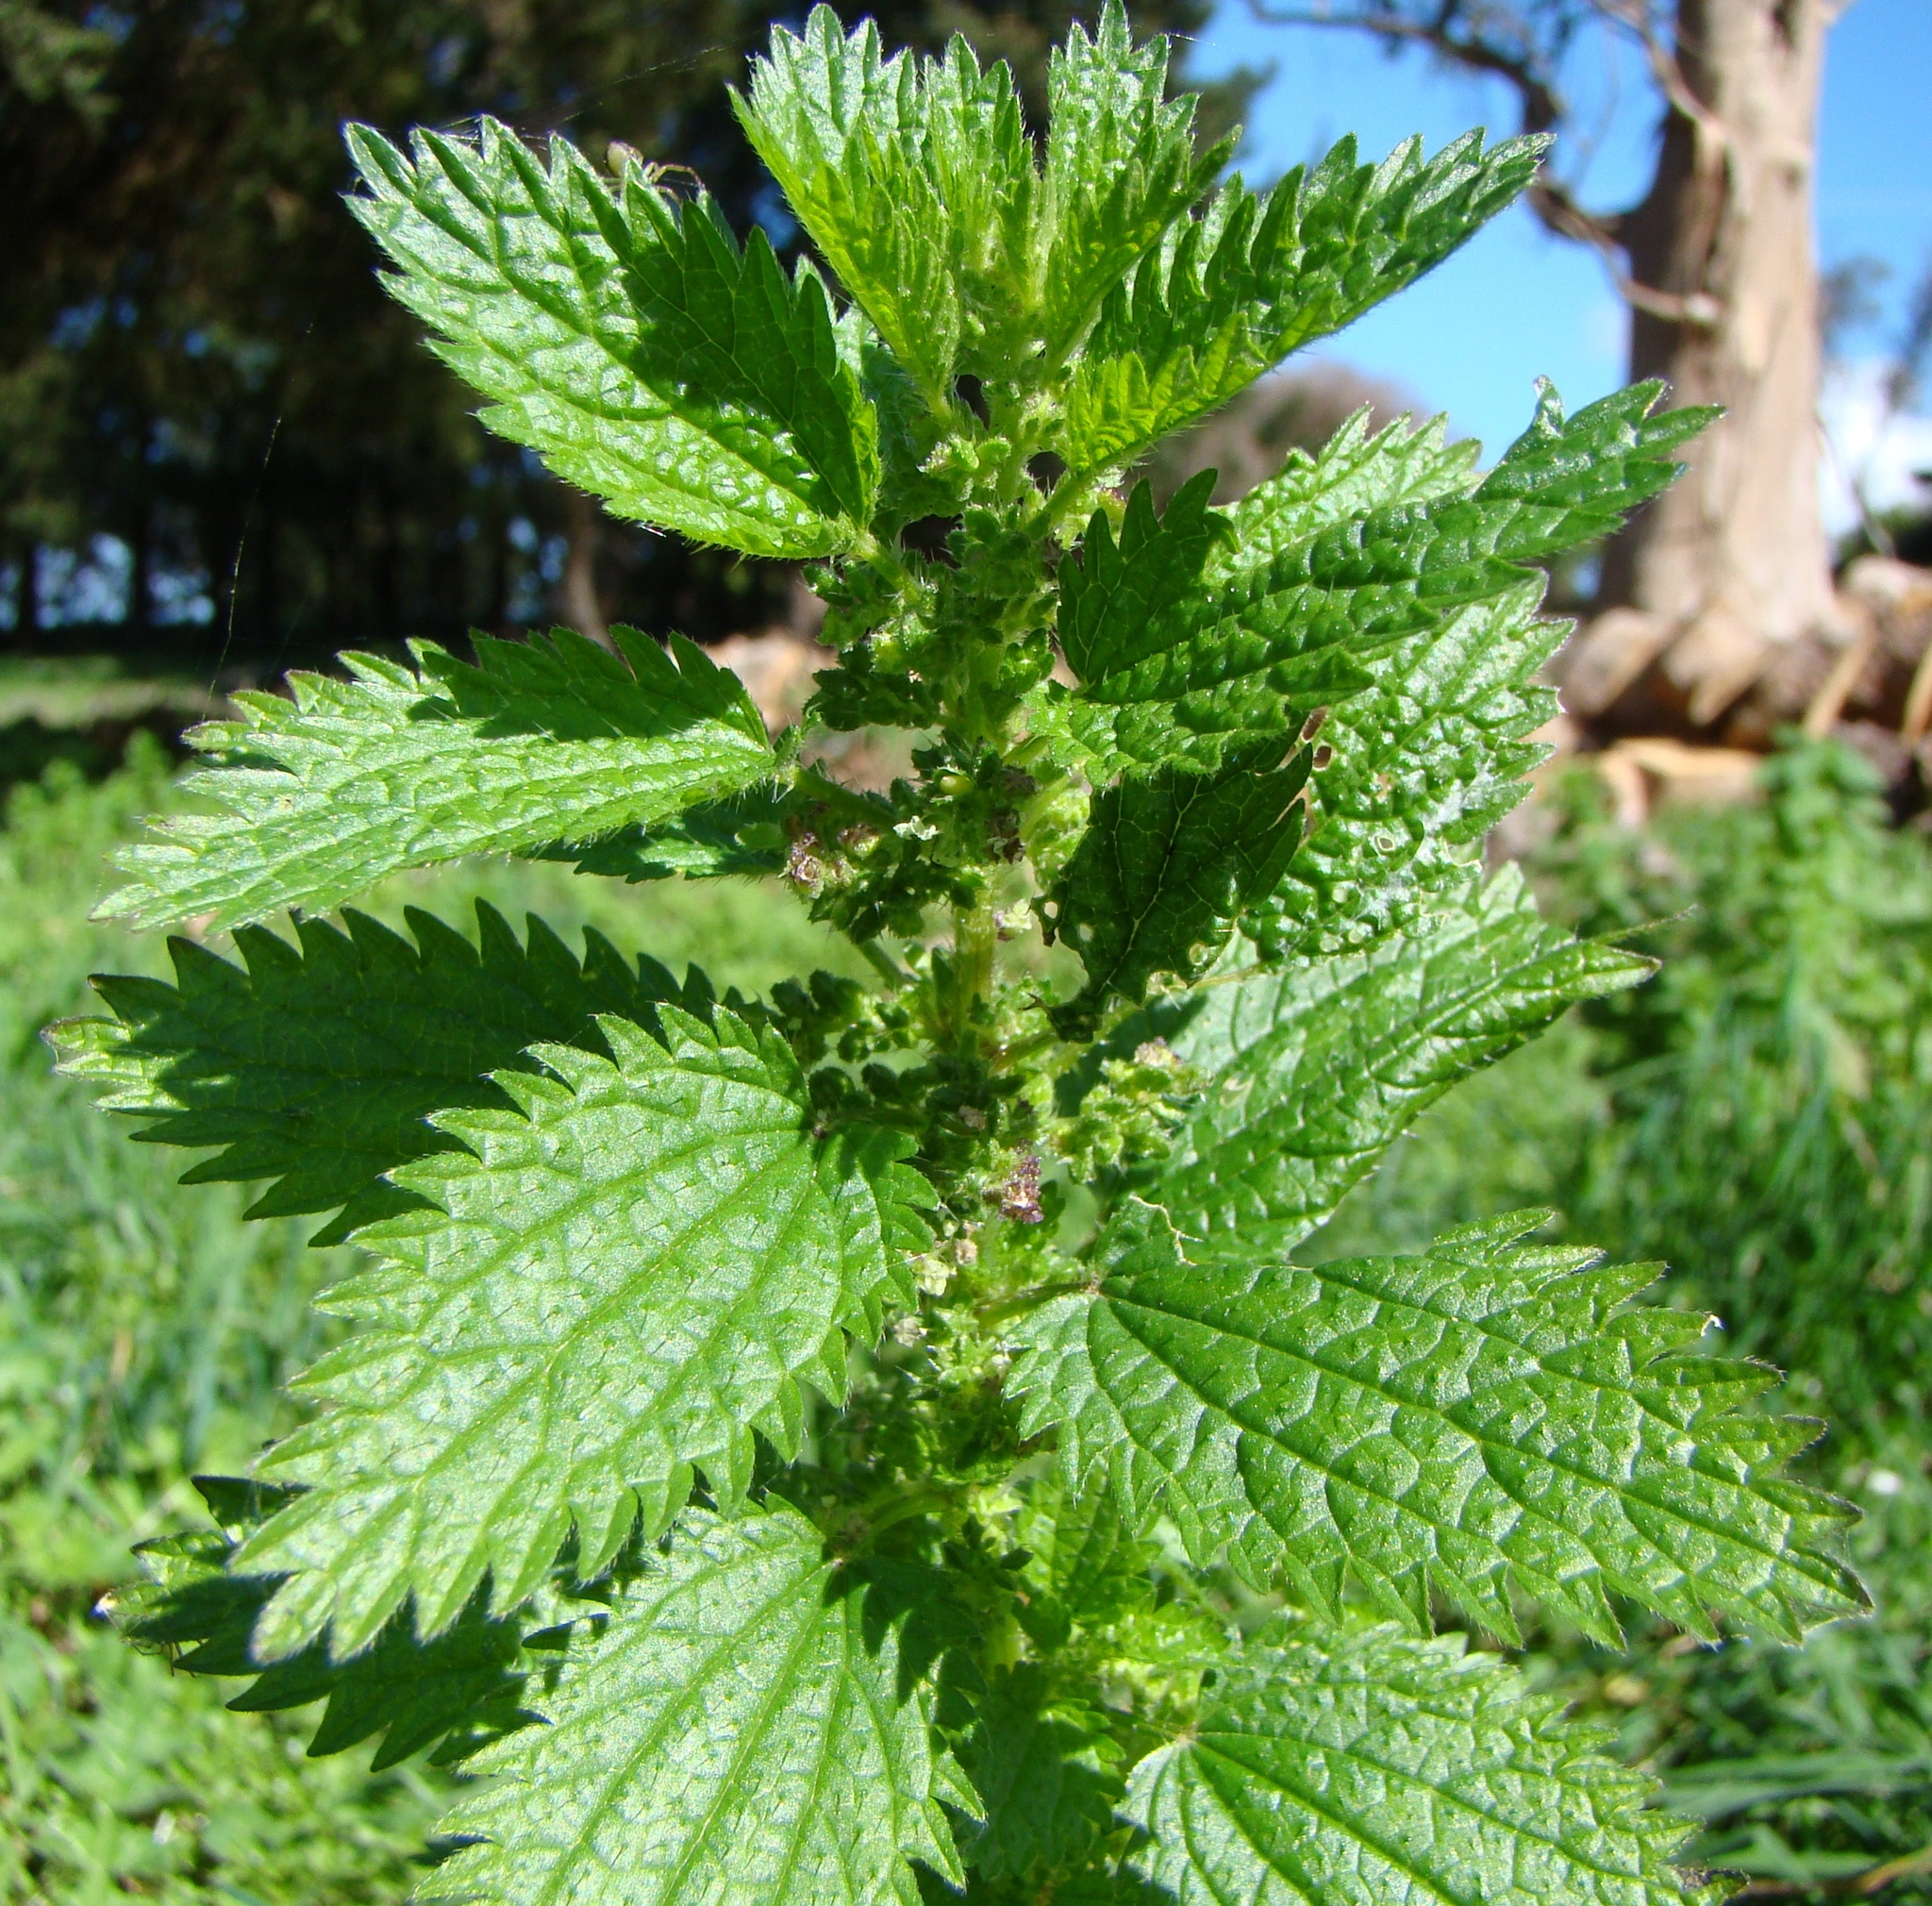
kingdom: Plantae
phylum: Tracheophyta
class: Magnoliopsida
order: Rosales
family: Urticaceae
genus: Urtica
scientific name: Urtica urens
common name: Dwarf nettle
